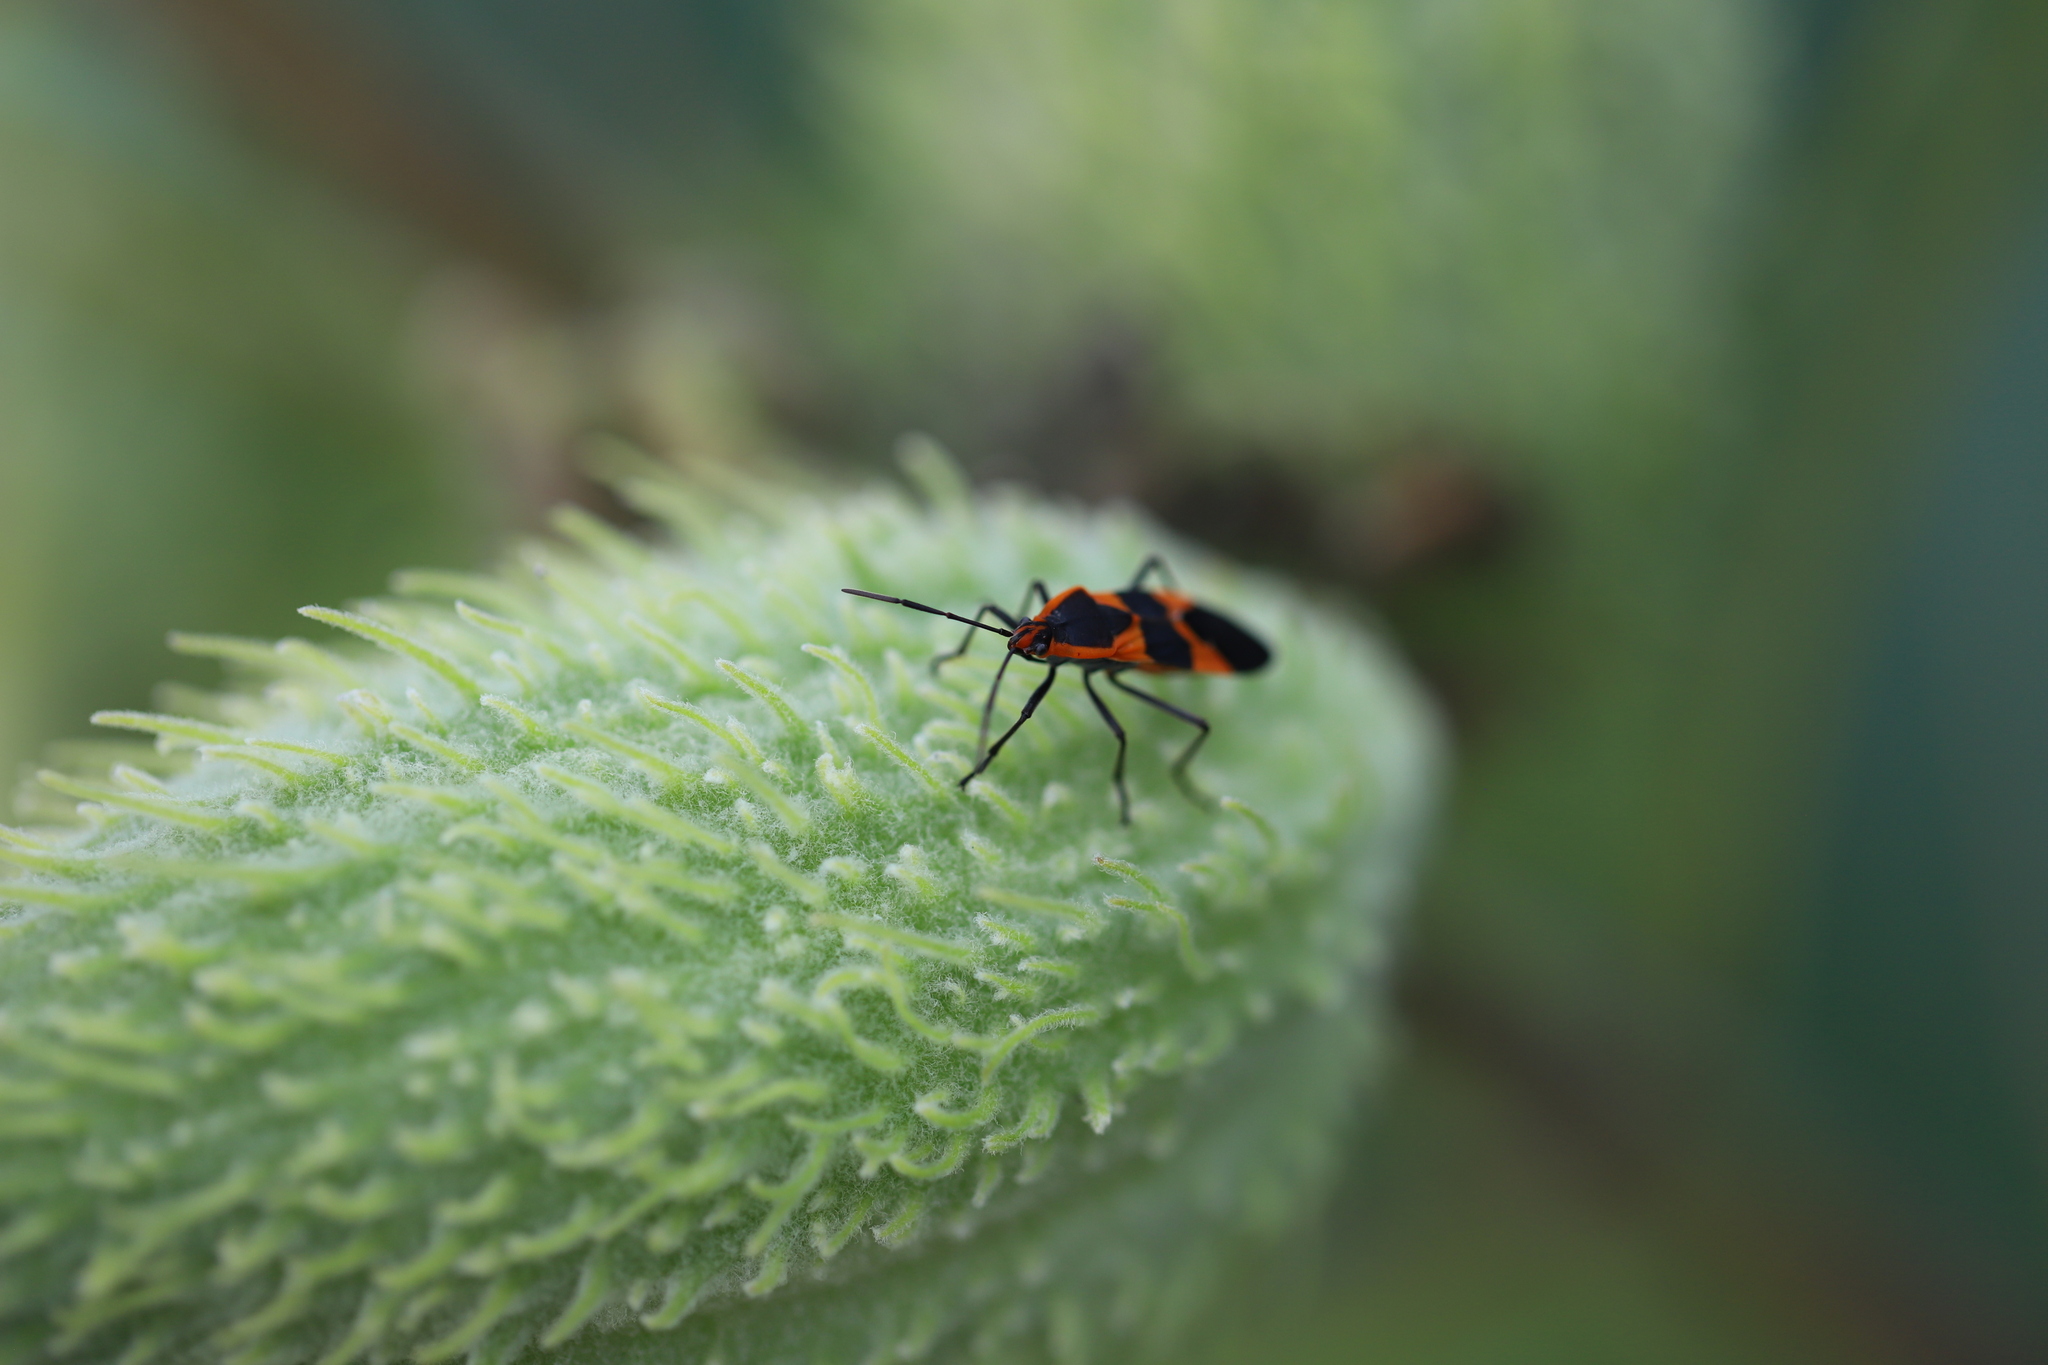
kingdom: Animalia
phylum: Arthropoda
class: Insecta
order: Hemiptera
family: Lygaeidae
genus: Oncopeltus
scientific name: Oncopeltus fasciatus
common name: Large milkweed bug
